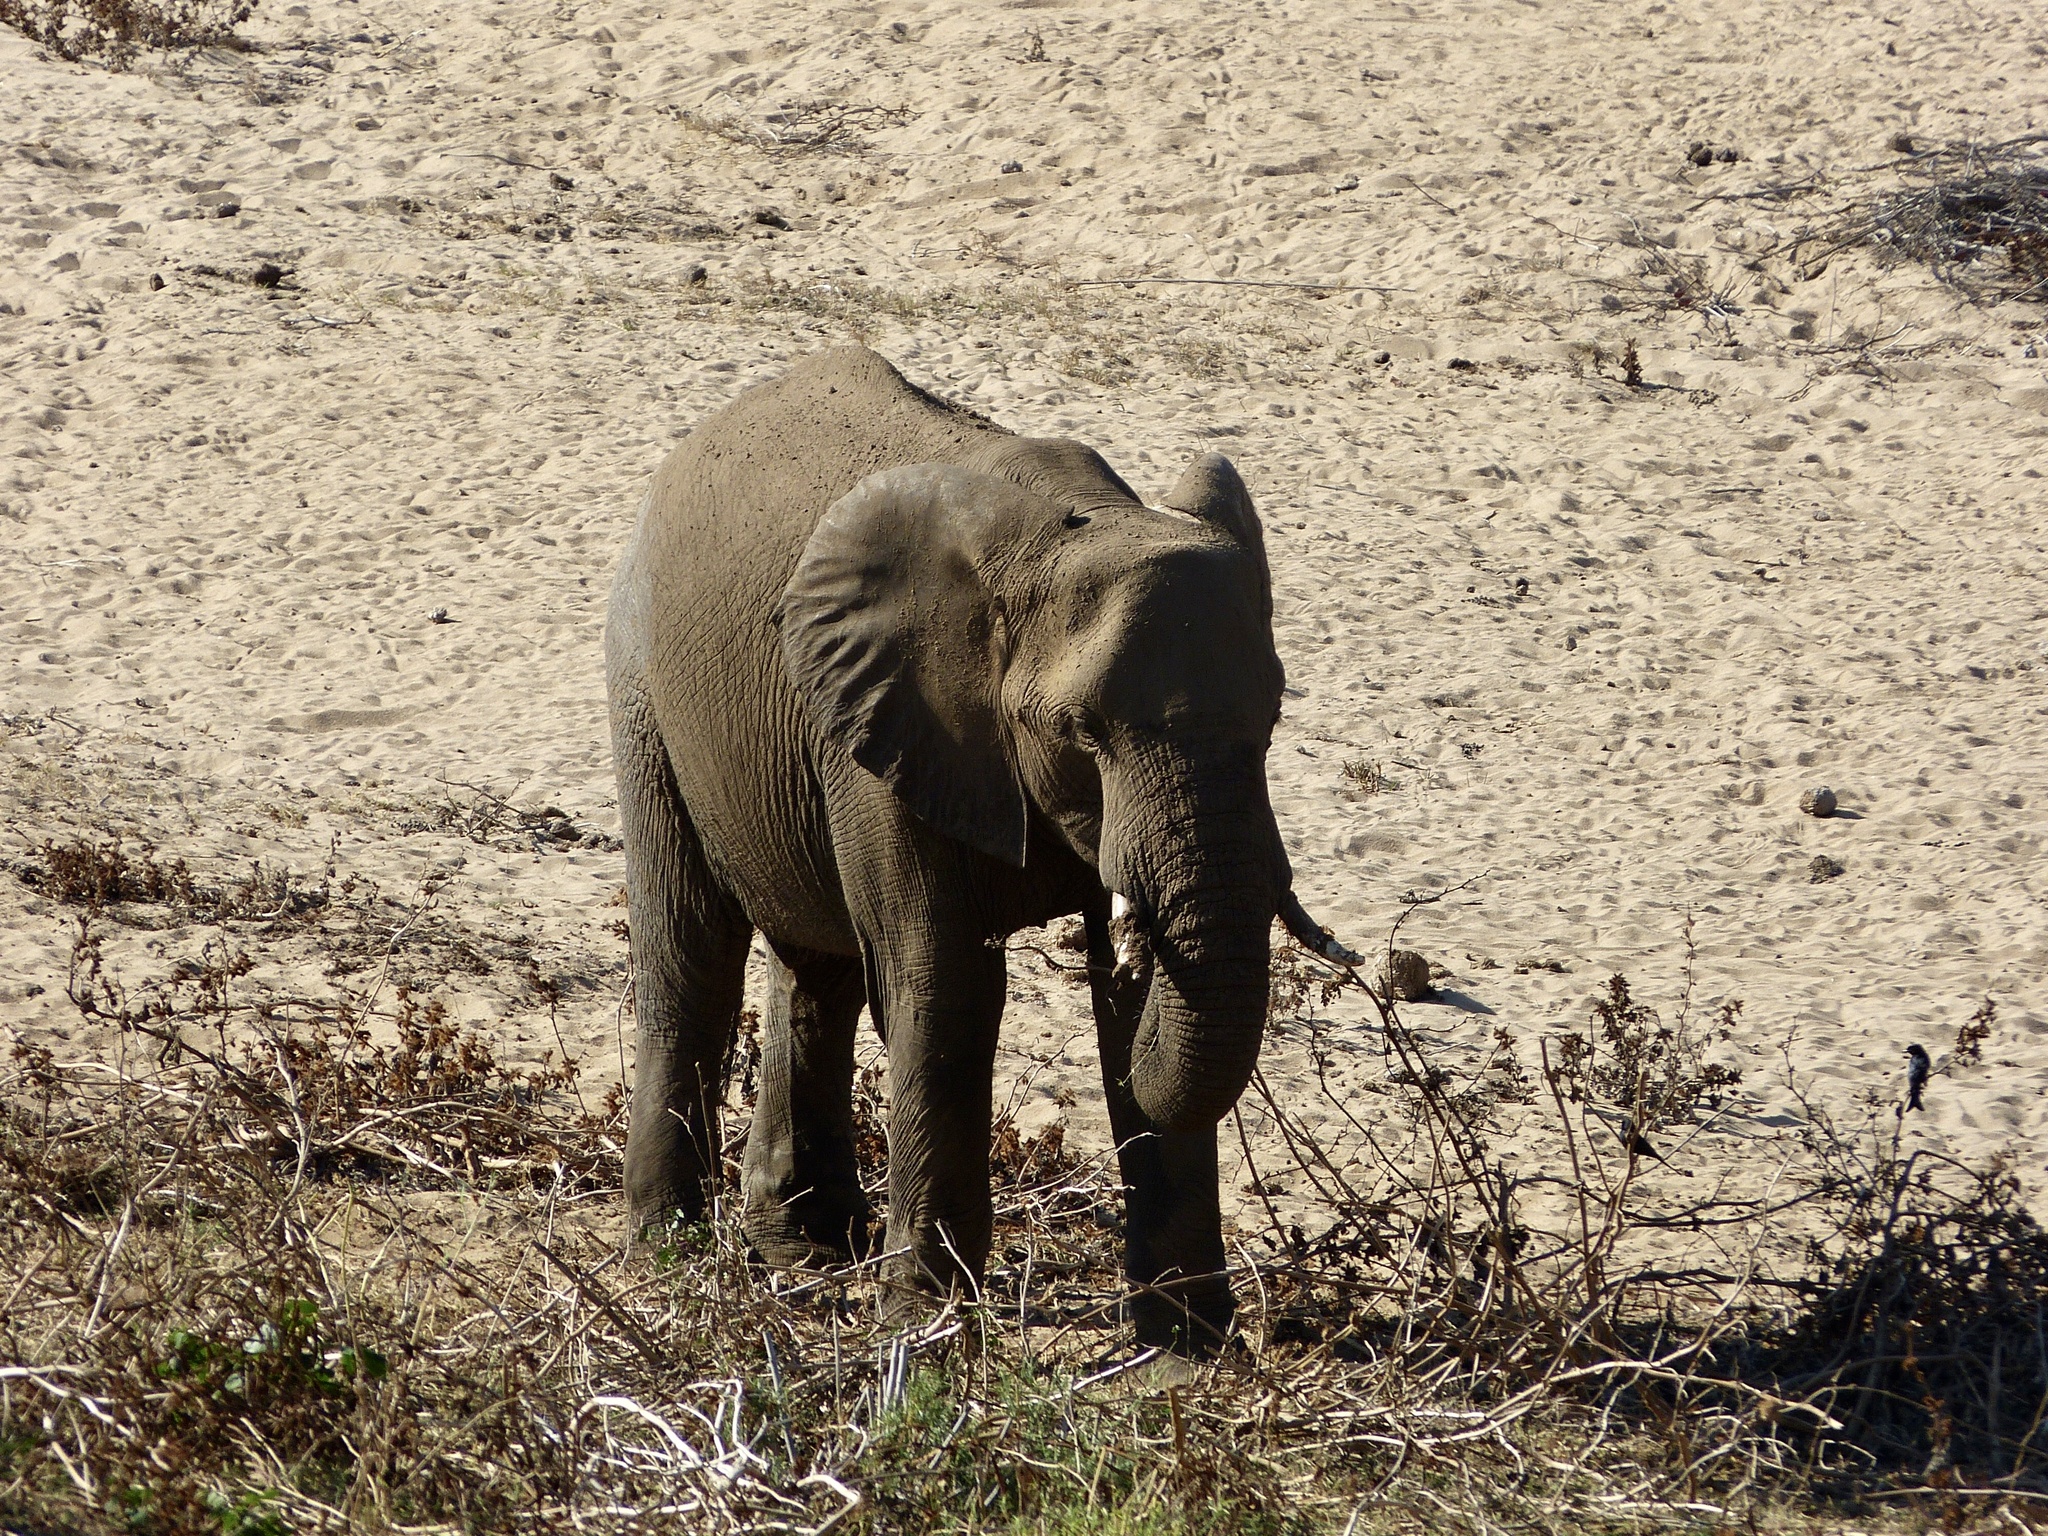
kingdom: Animalia
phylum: Chordata
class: Mammalia
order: Proboscidea
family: Elephantidae
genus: Loxodonta
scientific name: Loxodonta africana
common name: African elephant
